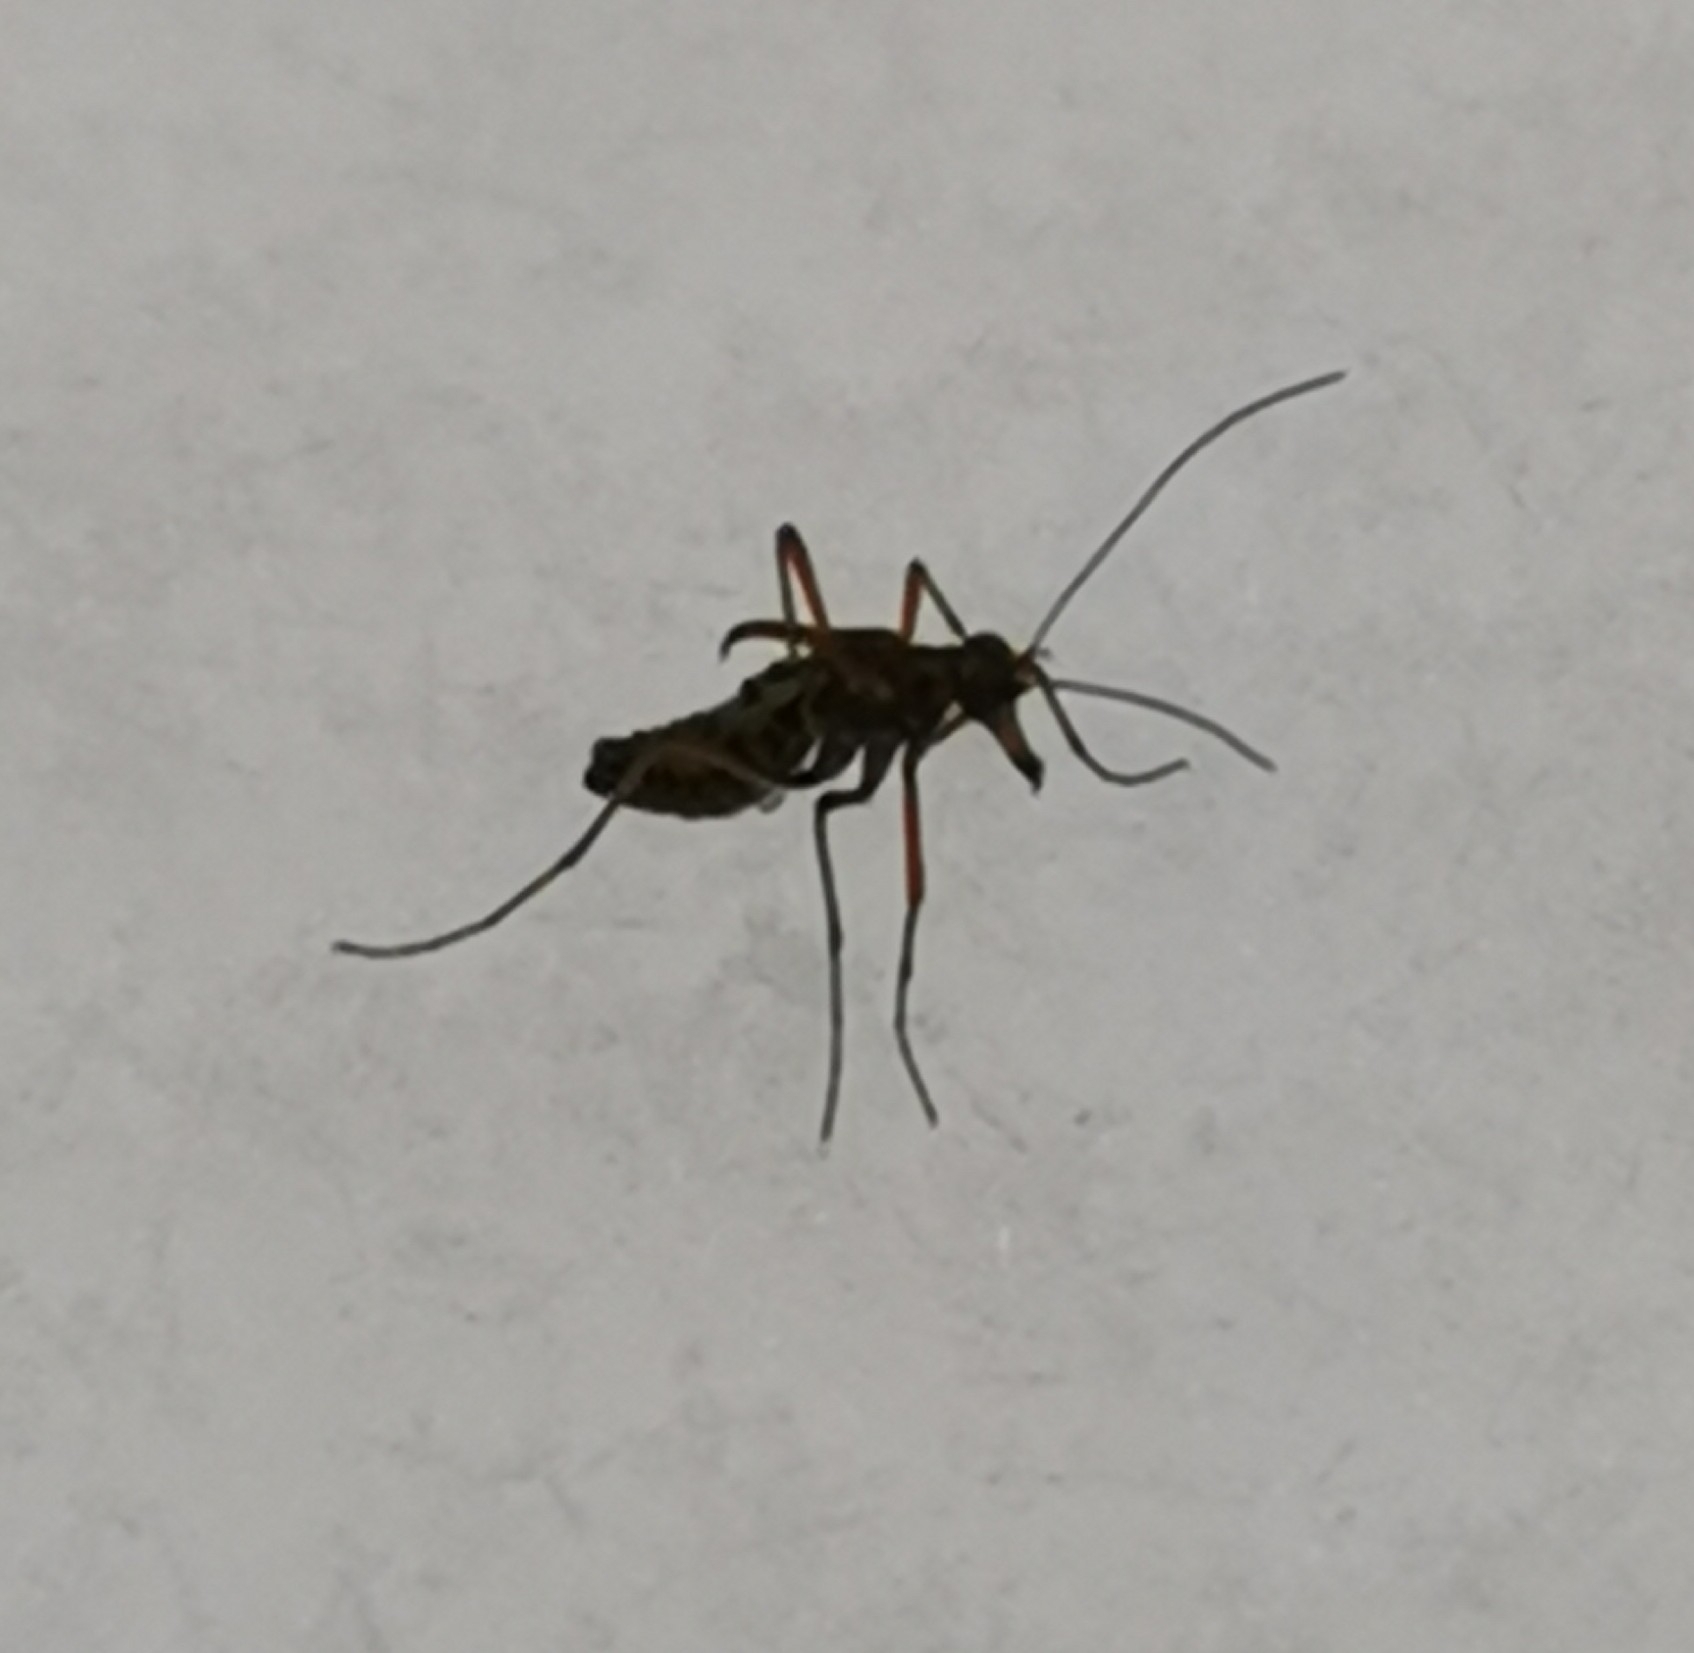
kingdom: Animalia
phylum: Arthropoda
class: Insecta
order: Mecoptera
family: Boreidae
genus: Boreus
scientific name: Boreus westwoodi
